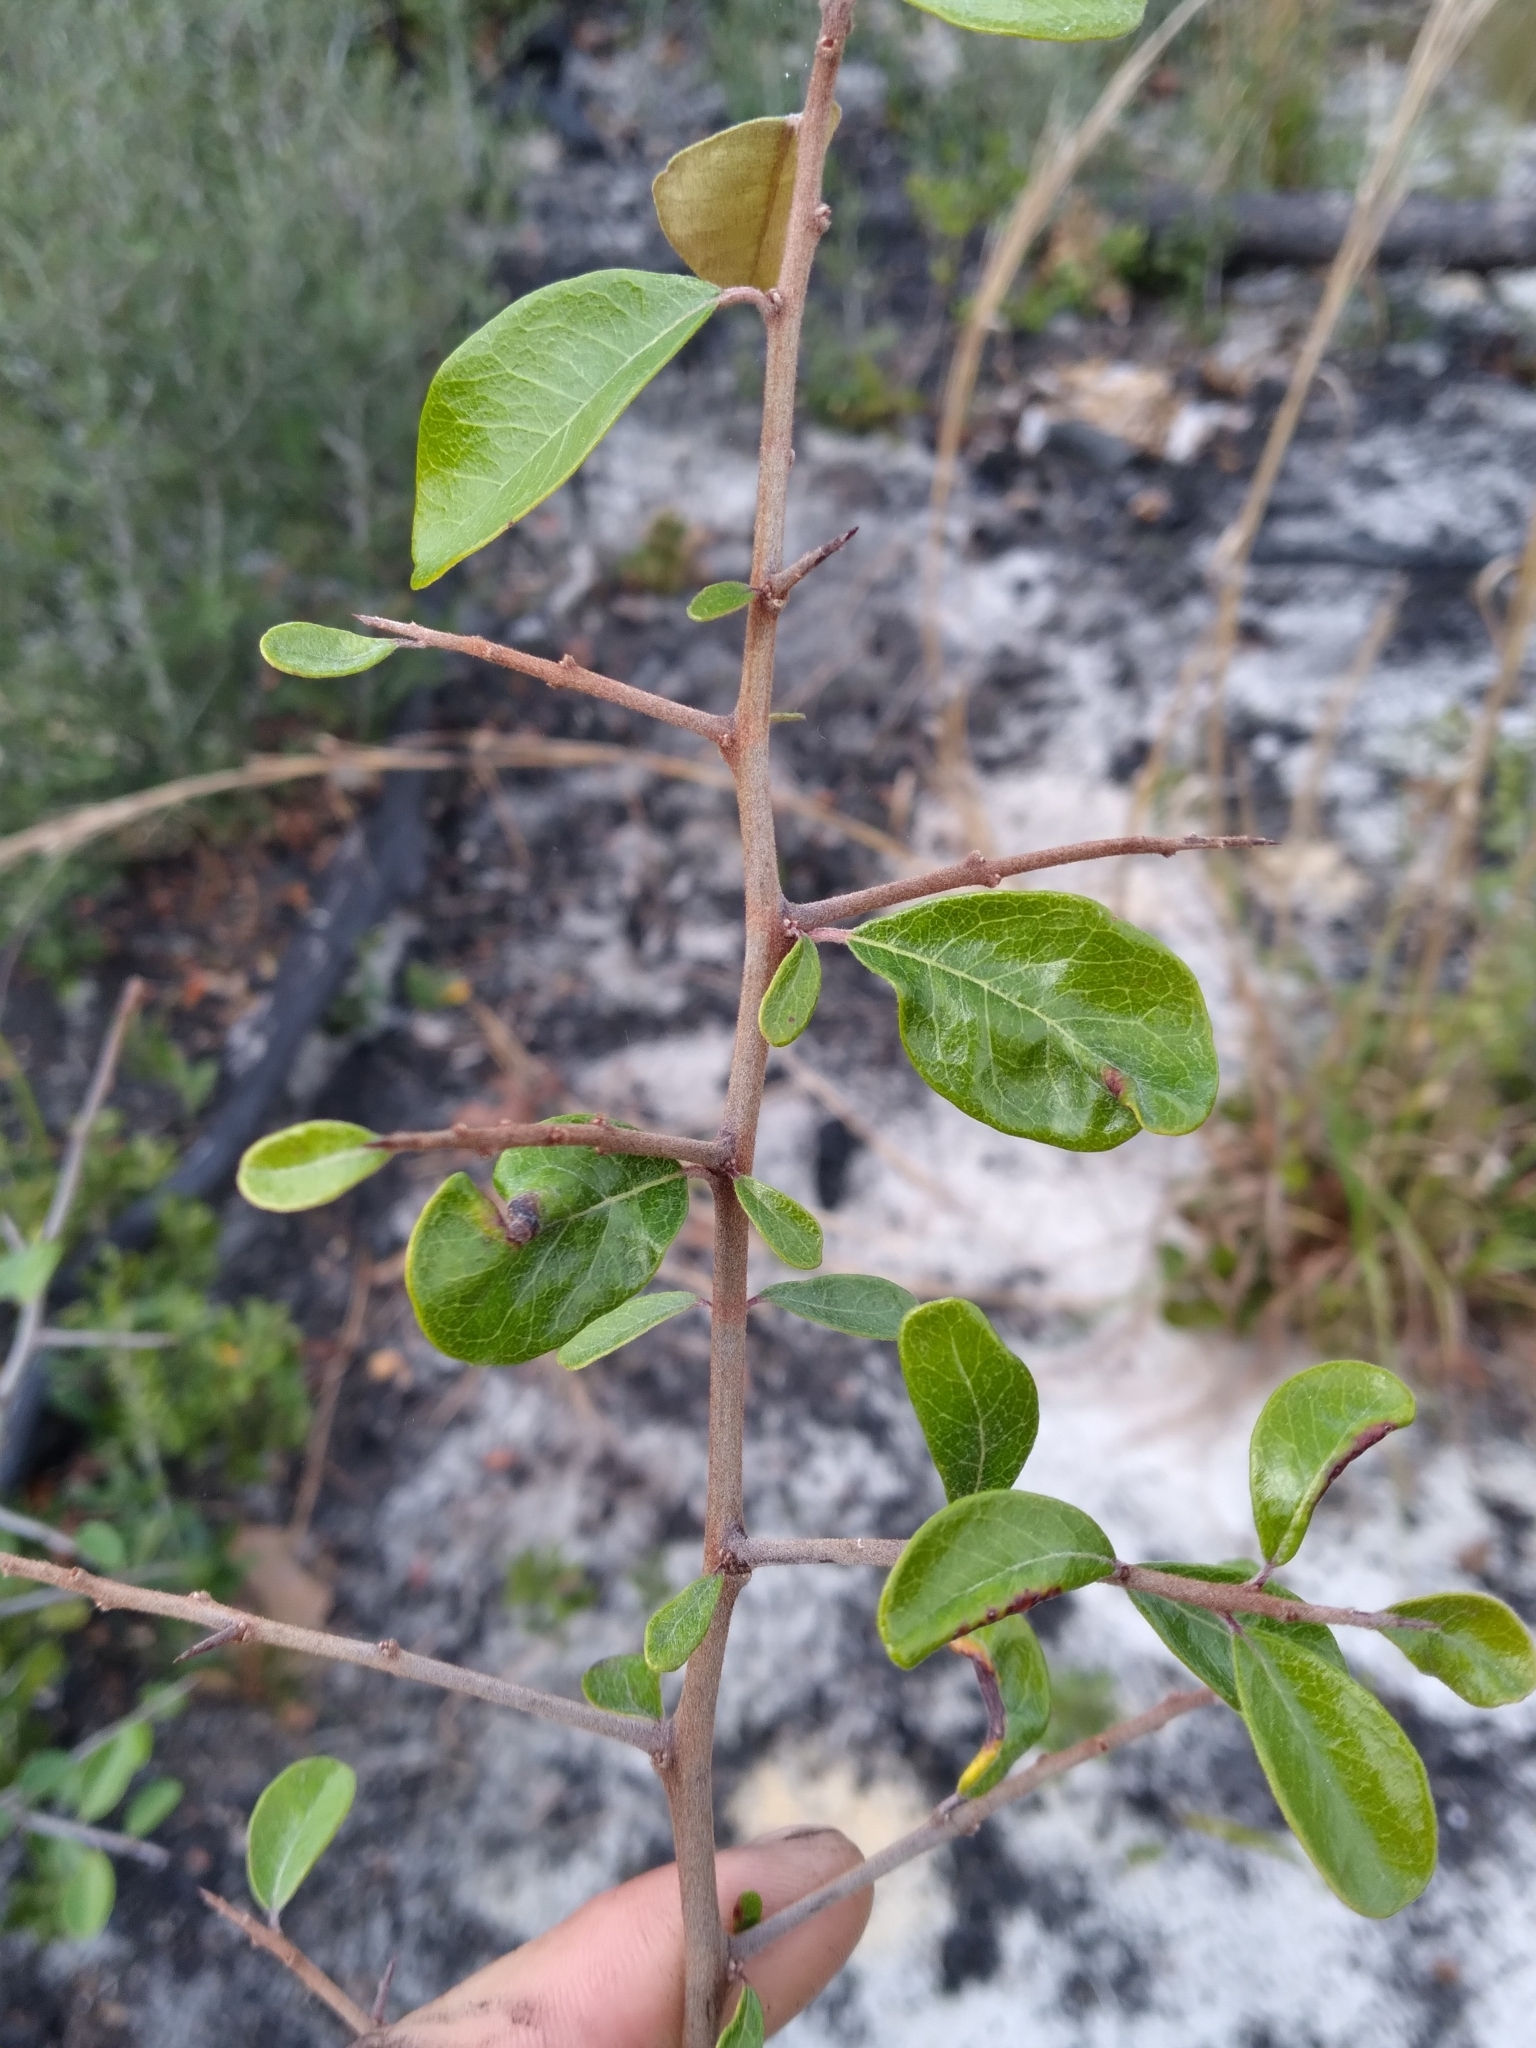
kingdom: Plantae
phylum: Tracheophyta
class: Magnoliopsida
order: Ericales
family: Sapotaceae
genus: Sideroxylon
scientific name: Sideroxylon tenax
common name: Tough-buckthorn
